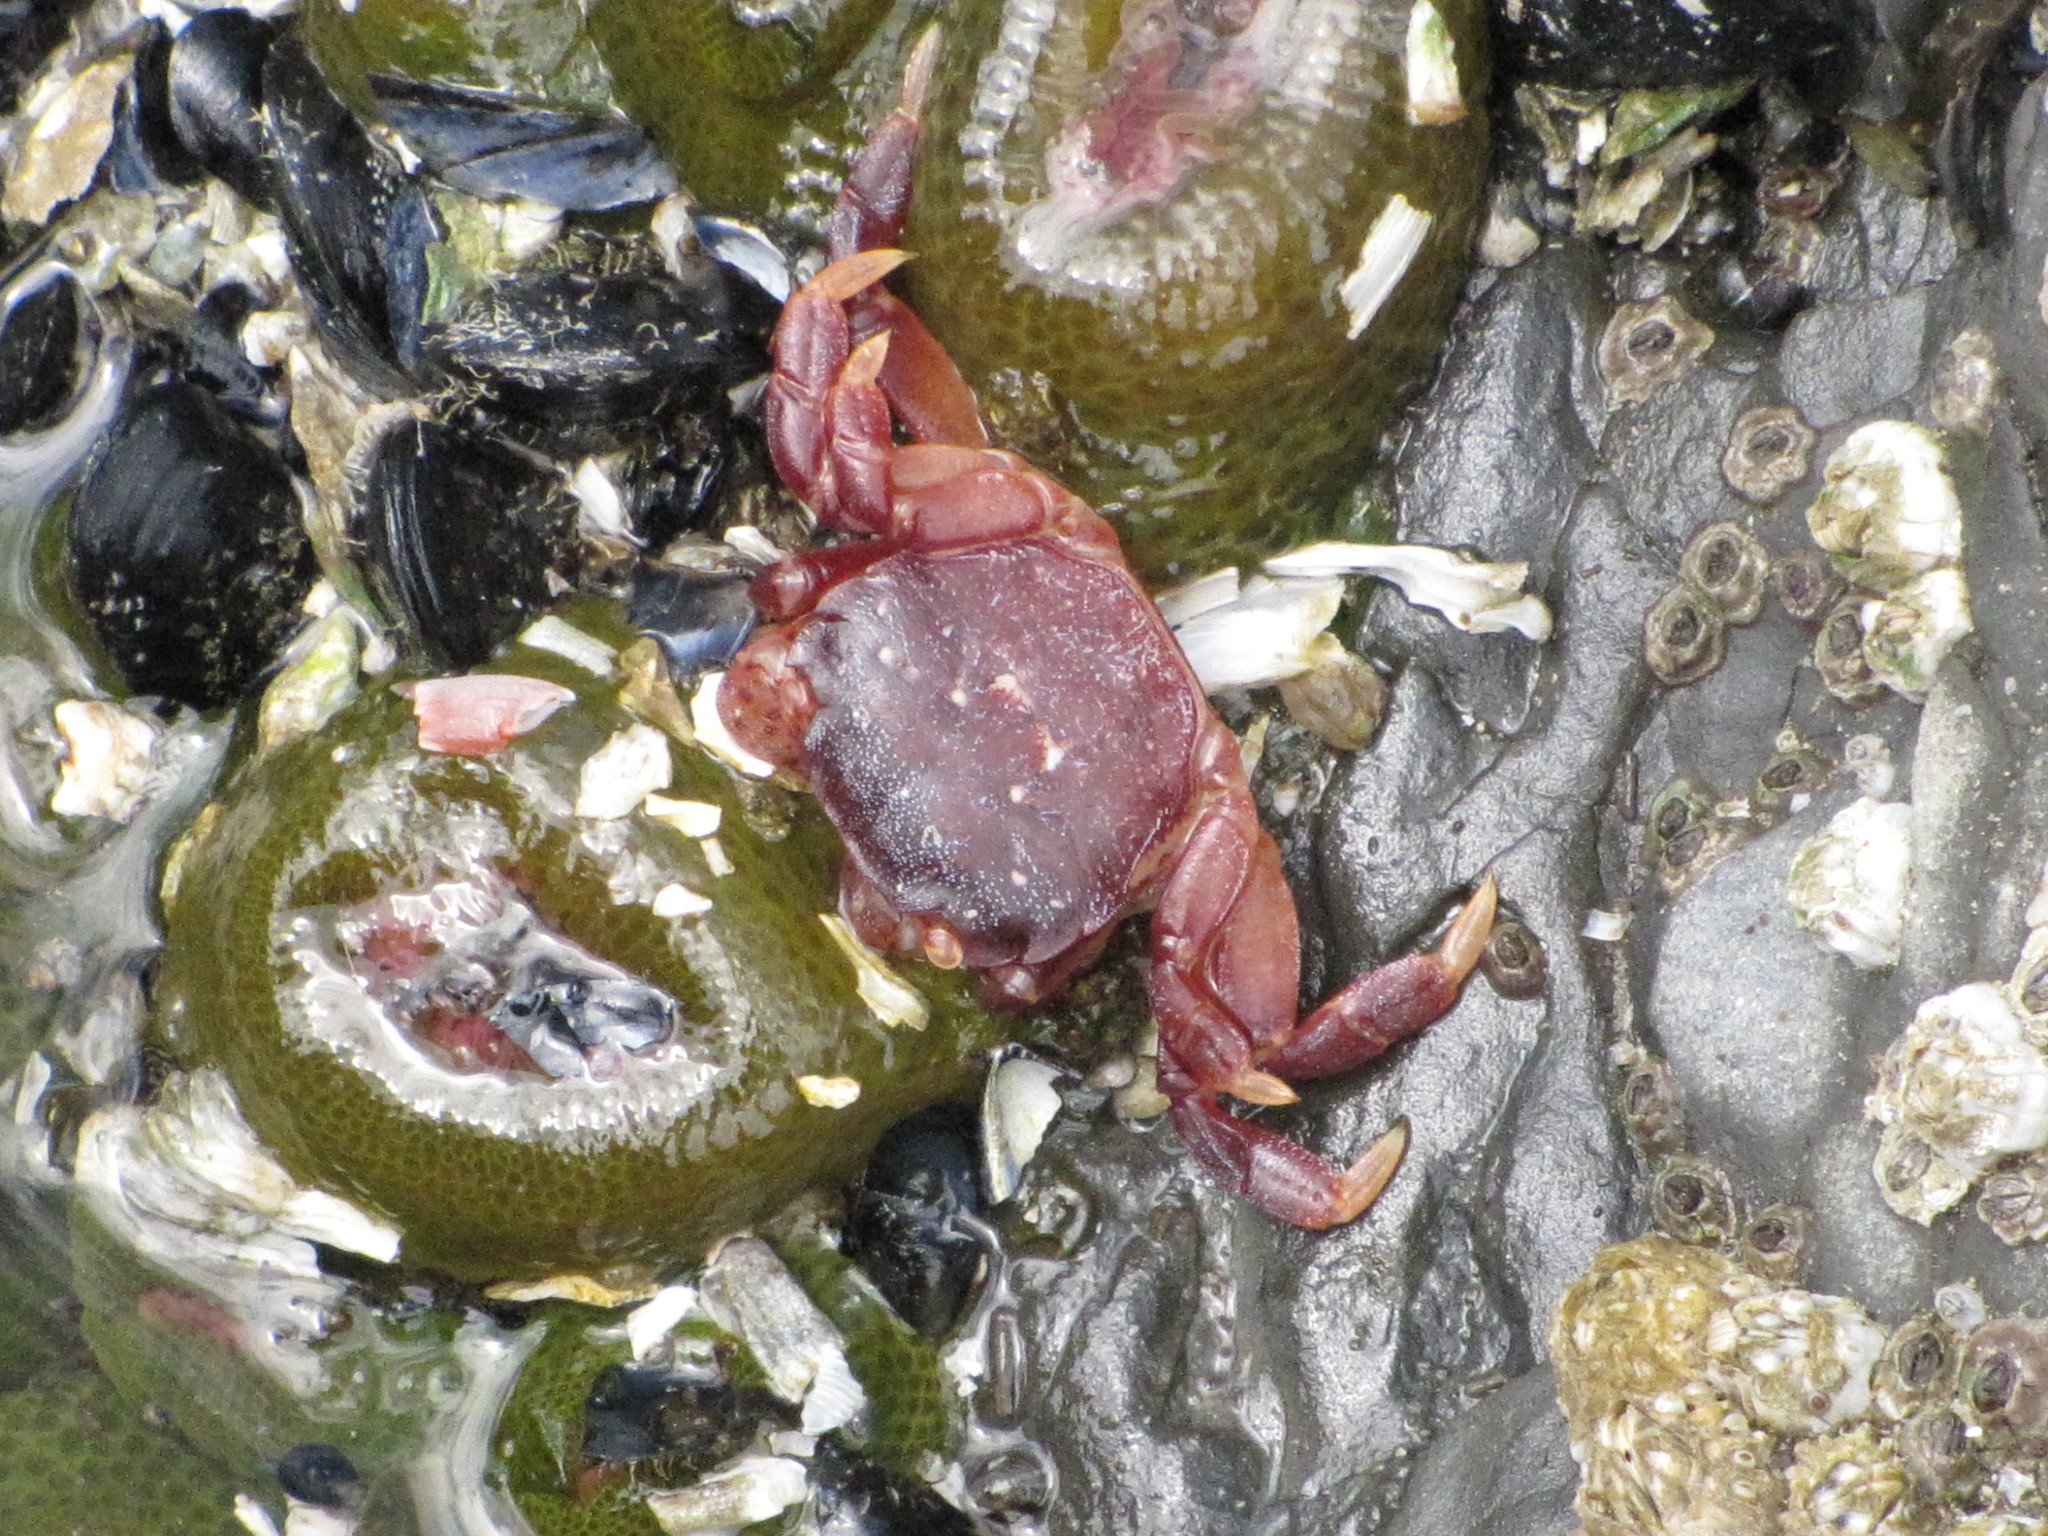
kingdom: Animalia
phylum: Arthropoda
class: Malacostraca
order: Decapoda
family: Varunidae
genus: Hemigrapsus
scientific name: Hemigrapsus nudus
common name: Purple shore crab
